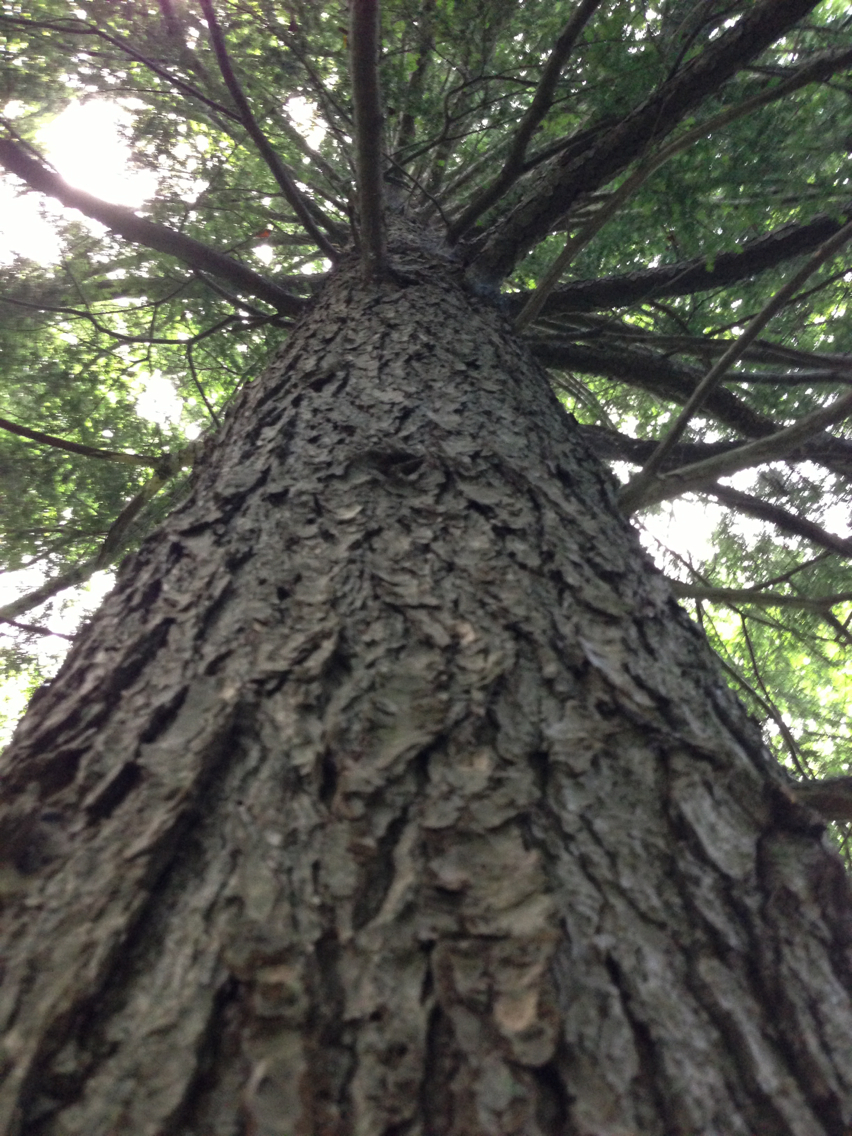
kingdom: Plantae
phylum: Tracheophyta
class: Pinopsida
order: Pinales
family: Pinaceae
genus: Tsuga
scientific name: Tsuga canadensis
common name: Eastern hemlock
